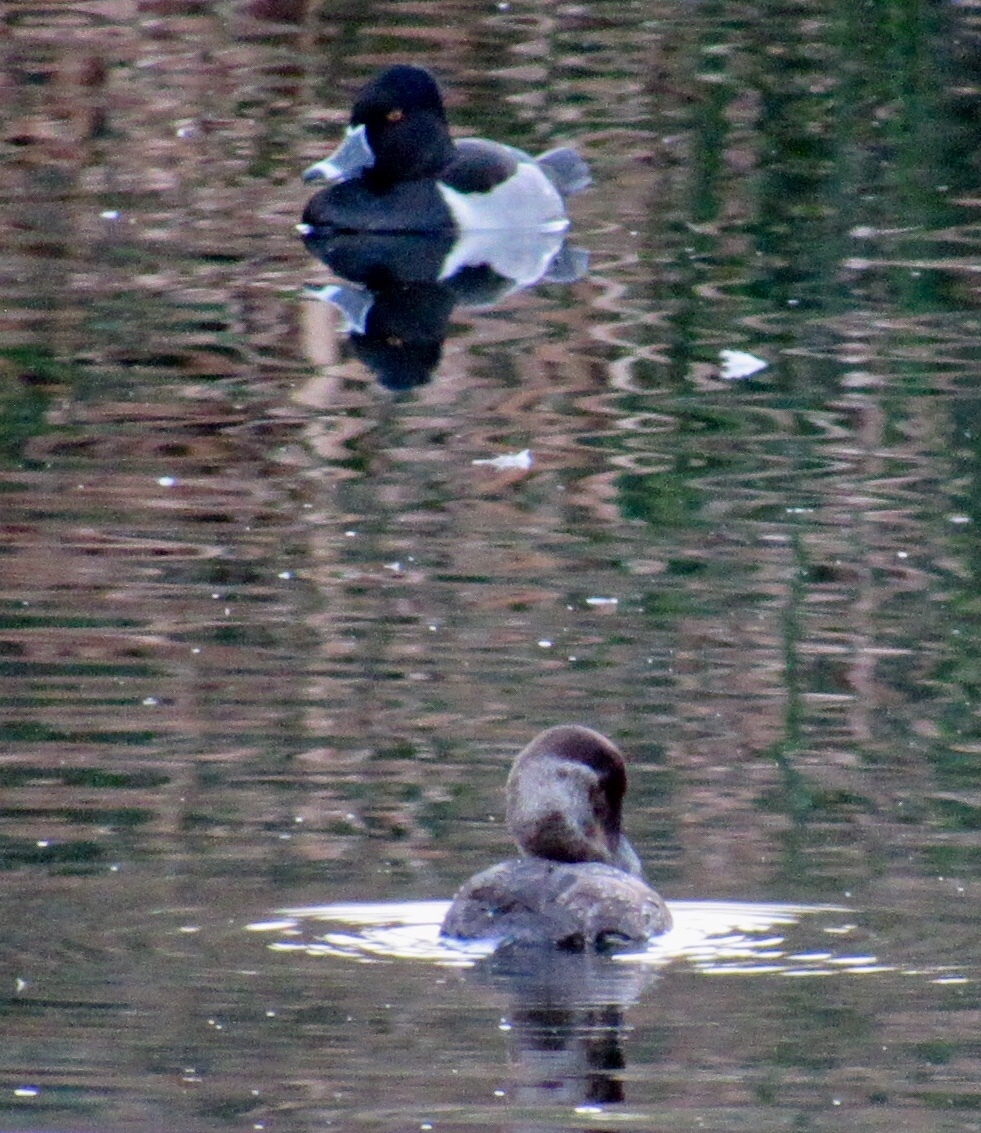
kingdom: Animalia
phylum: Chordata
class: Aves
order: Anseriformes
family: Anatidae
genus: Aythya
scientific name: Aythya collaris
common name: Ring-necked duck
